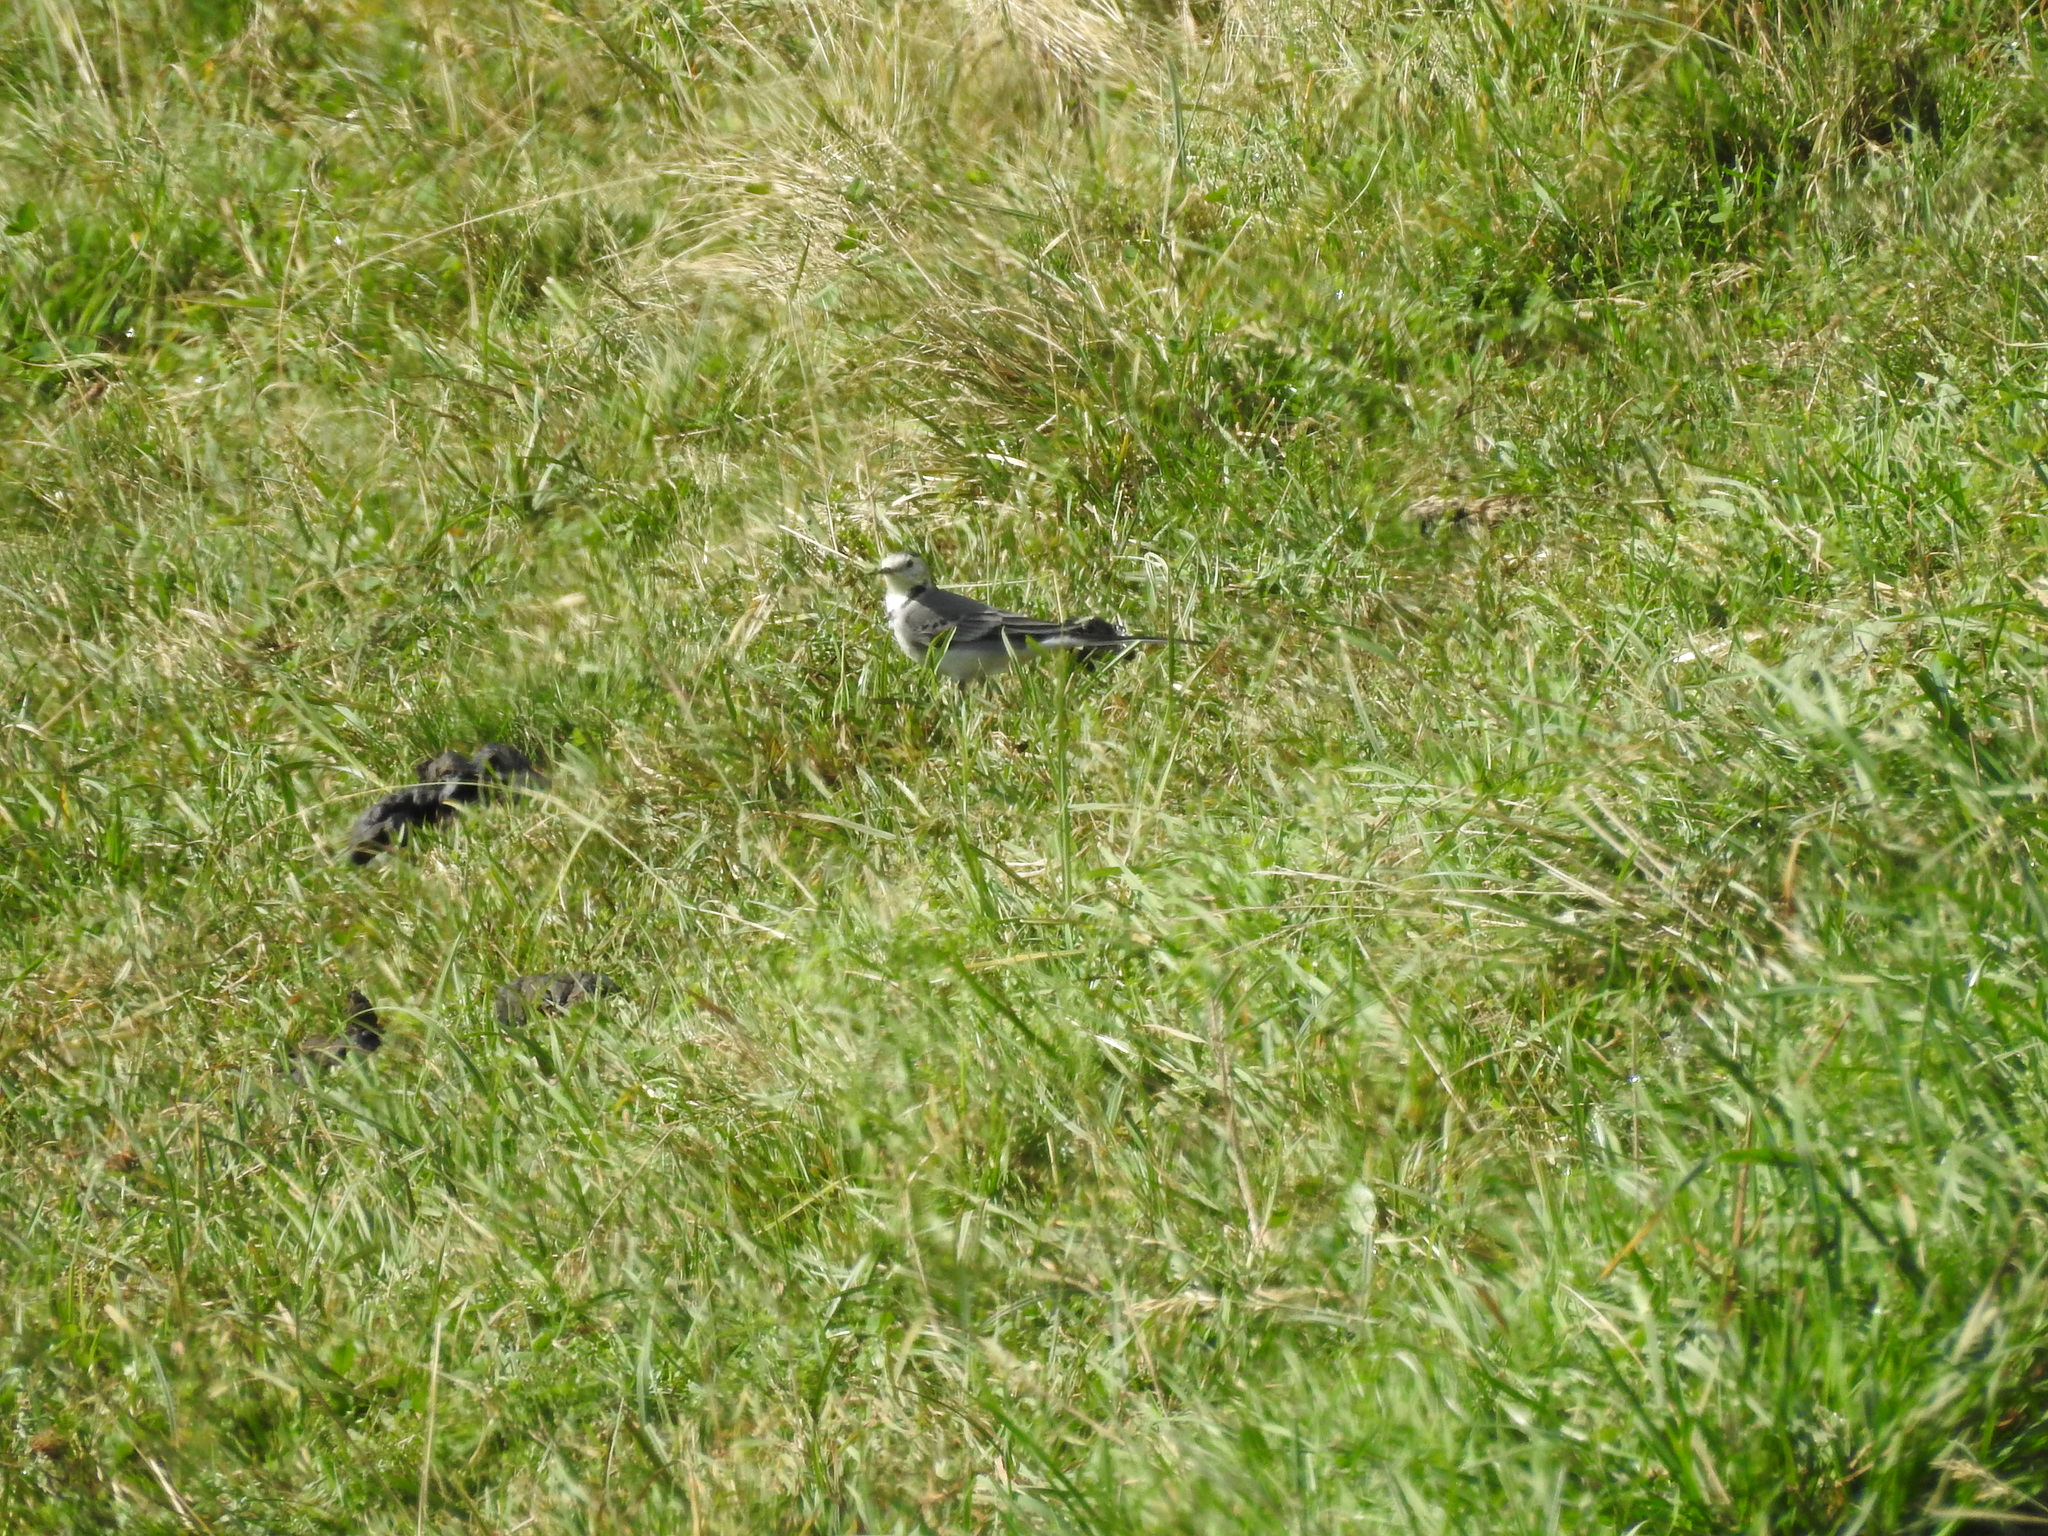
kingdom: Animalia
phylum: Chordata
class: Aves
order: Passeriformes
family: Motacillidae
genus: Motacilla
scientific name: Motacilla alba
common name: White wagtail
